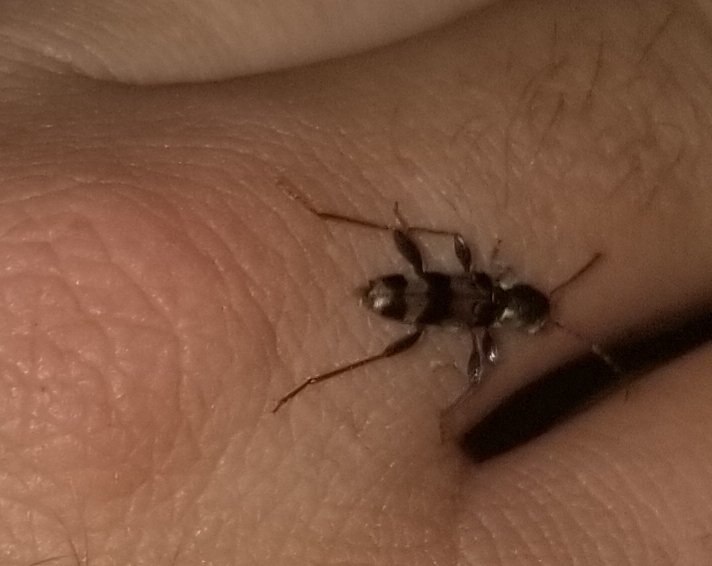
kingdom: Animalia
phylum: Arthropoda
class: Insecta
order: Coleoptera
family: Cerambycidae
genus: Xylotrechus
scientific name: Xylotrechus colonus
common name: Long-horned beetle
